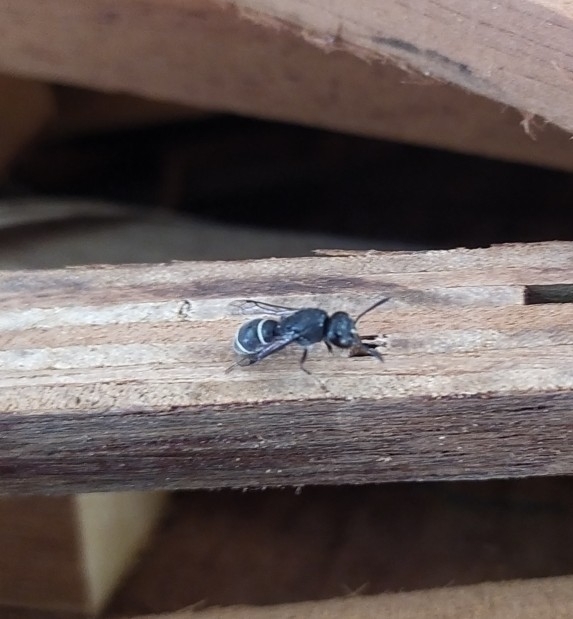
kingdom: Animalia
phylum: Arthropoda
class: Insecta
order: Hymenoptera
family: Eumenidae
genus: Subancistrocerus
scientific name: Subancistrocerus sichelii
